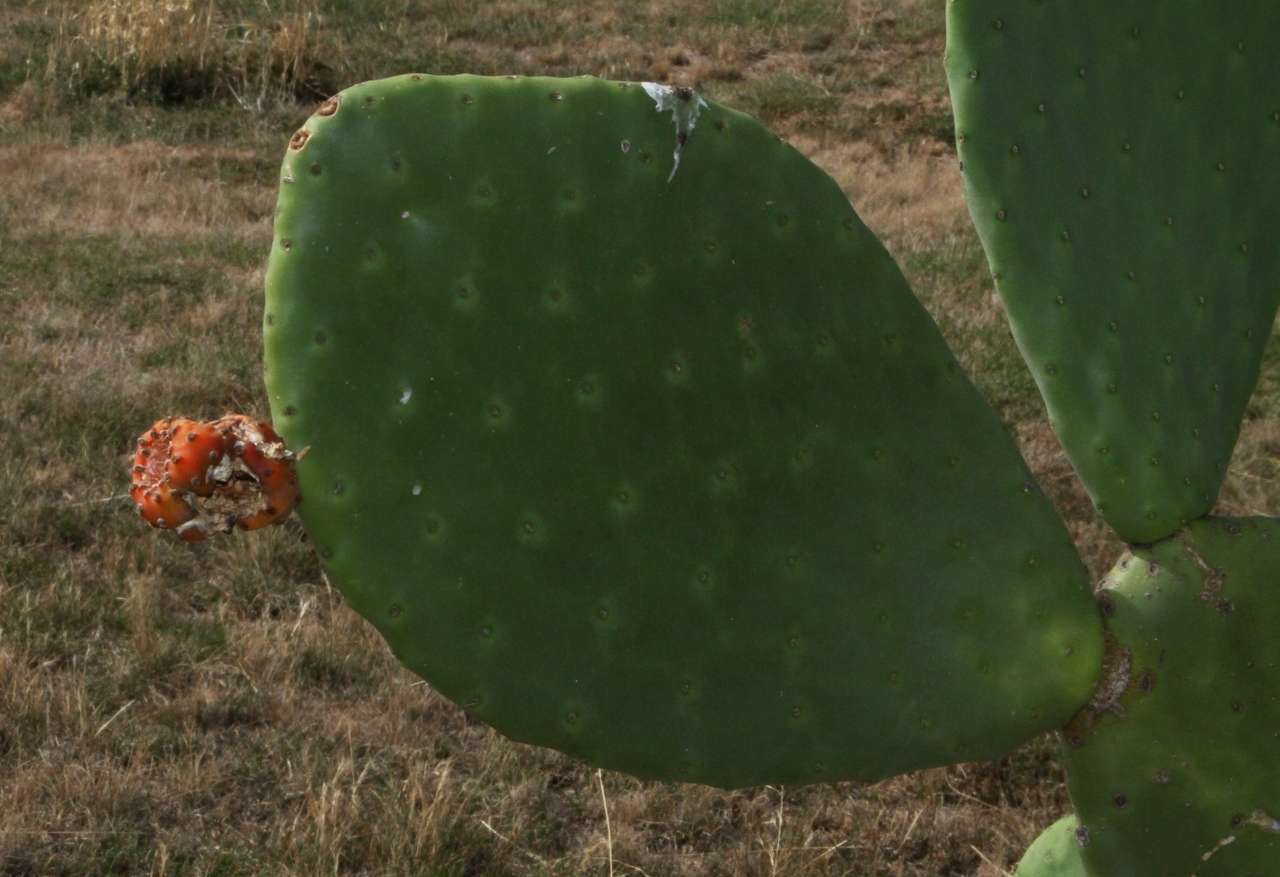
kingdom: Plantae
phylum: Tracheophyta
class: Magnoliopsida
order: Caryophyllales
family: Cactaceae
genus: Opuntia
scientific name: Opuntia ficus-indica
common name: Barbary fig
